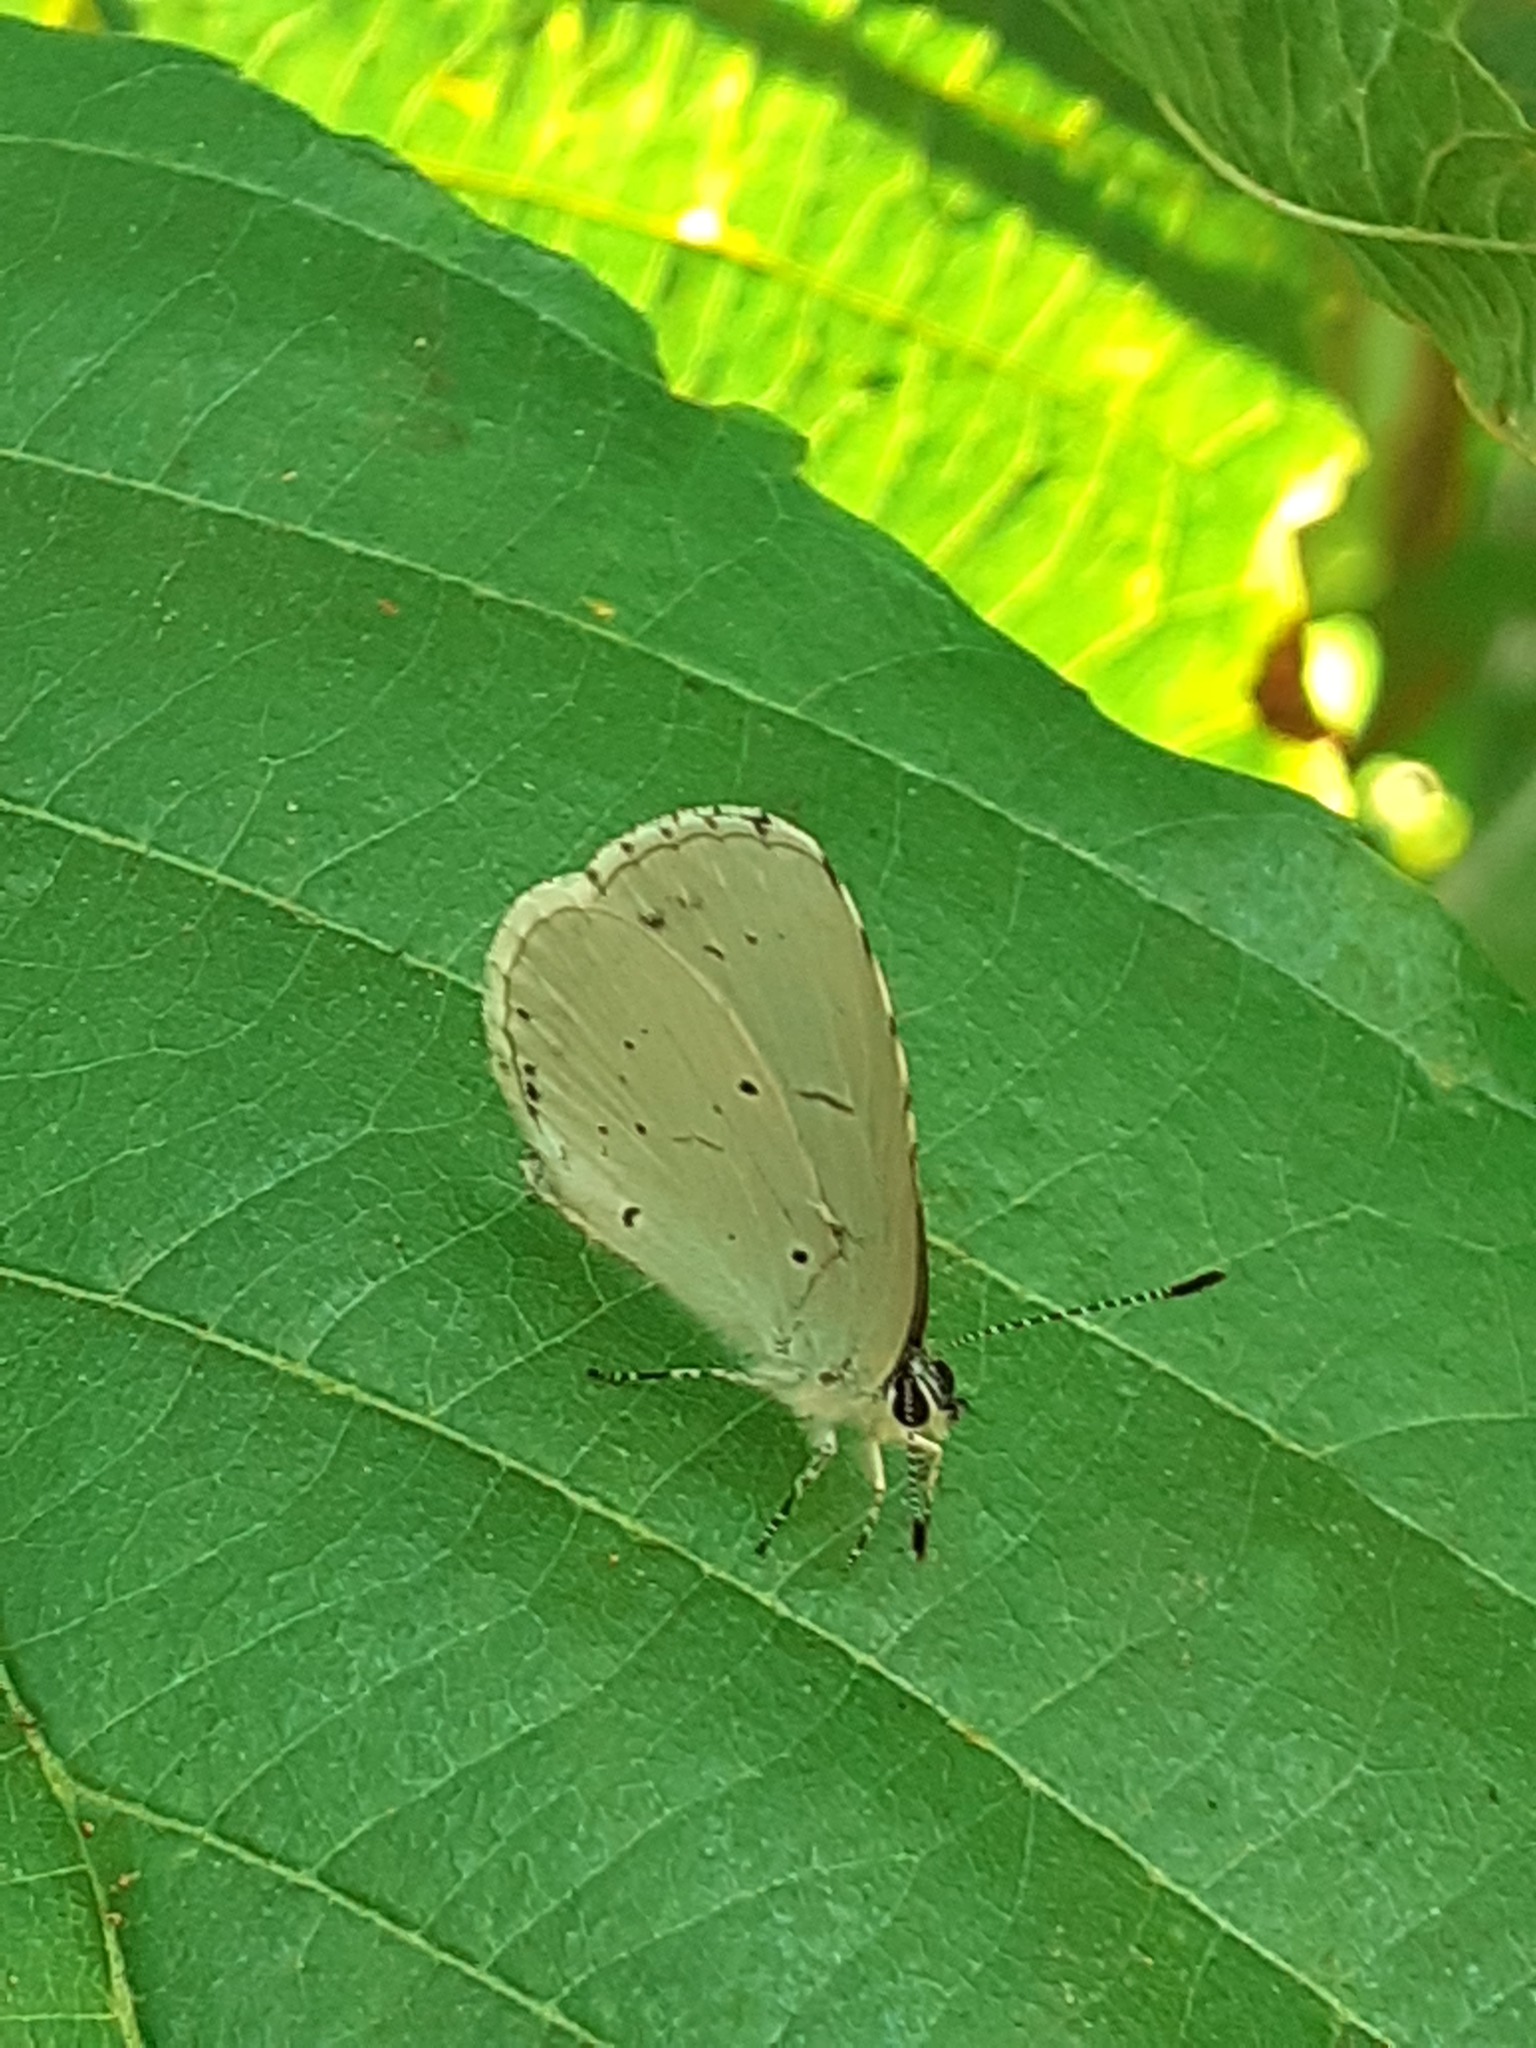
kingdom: Animalia
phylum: Arthropoda
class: Insecta
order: Lepidoptera
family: Lycaenidae
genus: Celastrina
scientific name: Celastrina argiolus
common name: Holly blue
